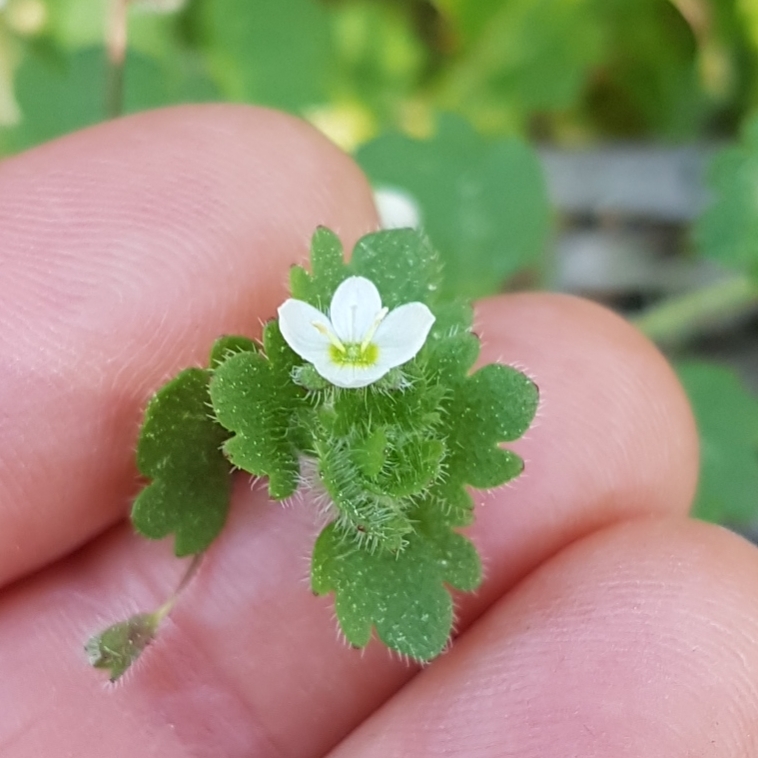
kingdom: Plantae
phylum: Tracheophyta
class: Magnoliopsida
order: Lamiales
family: Plantaginaceae
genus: Veronica
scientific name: Veronica cymbalaria
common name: Pale speedwell
